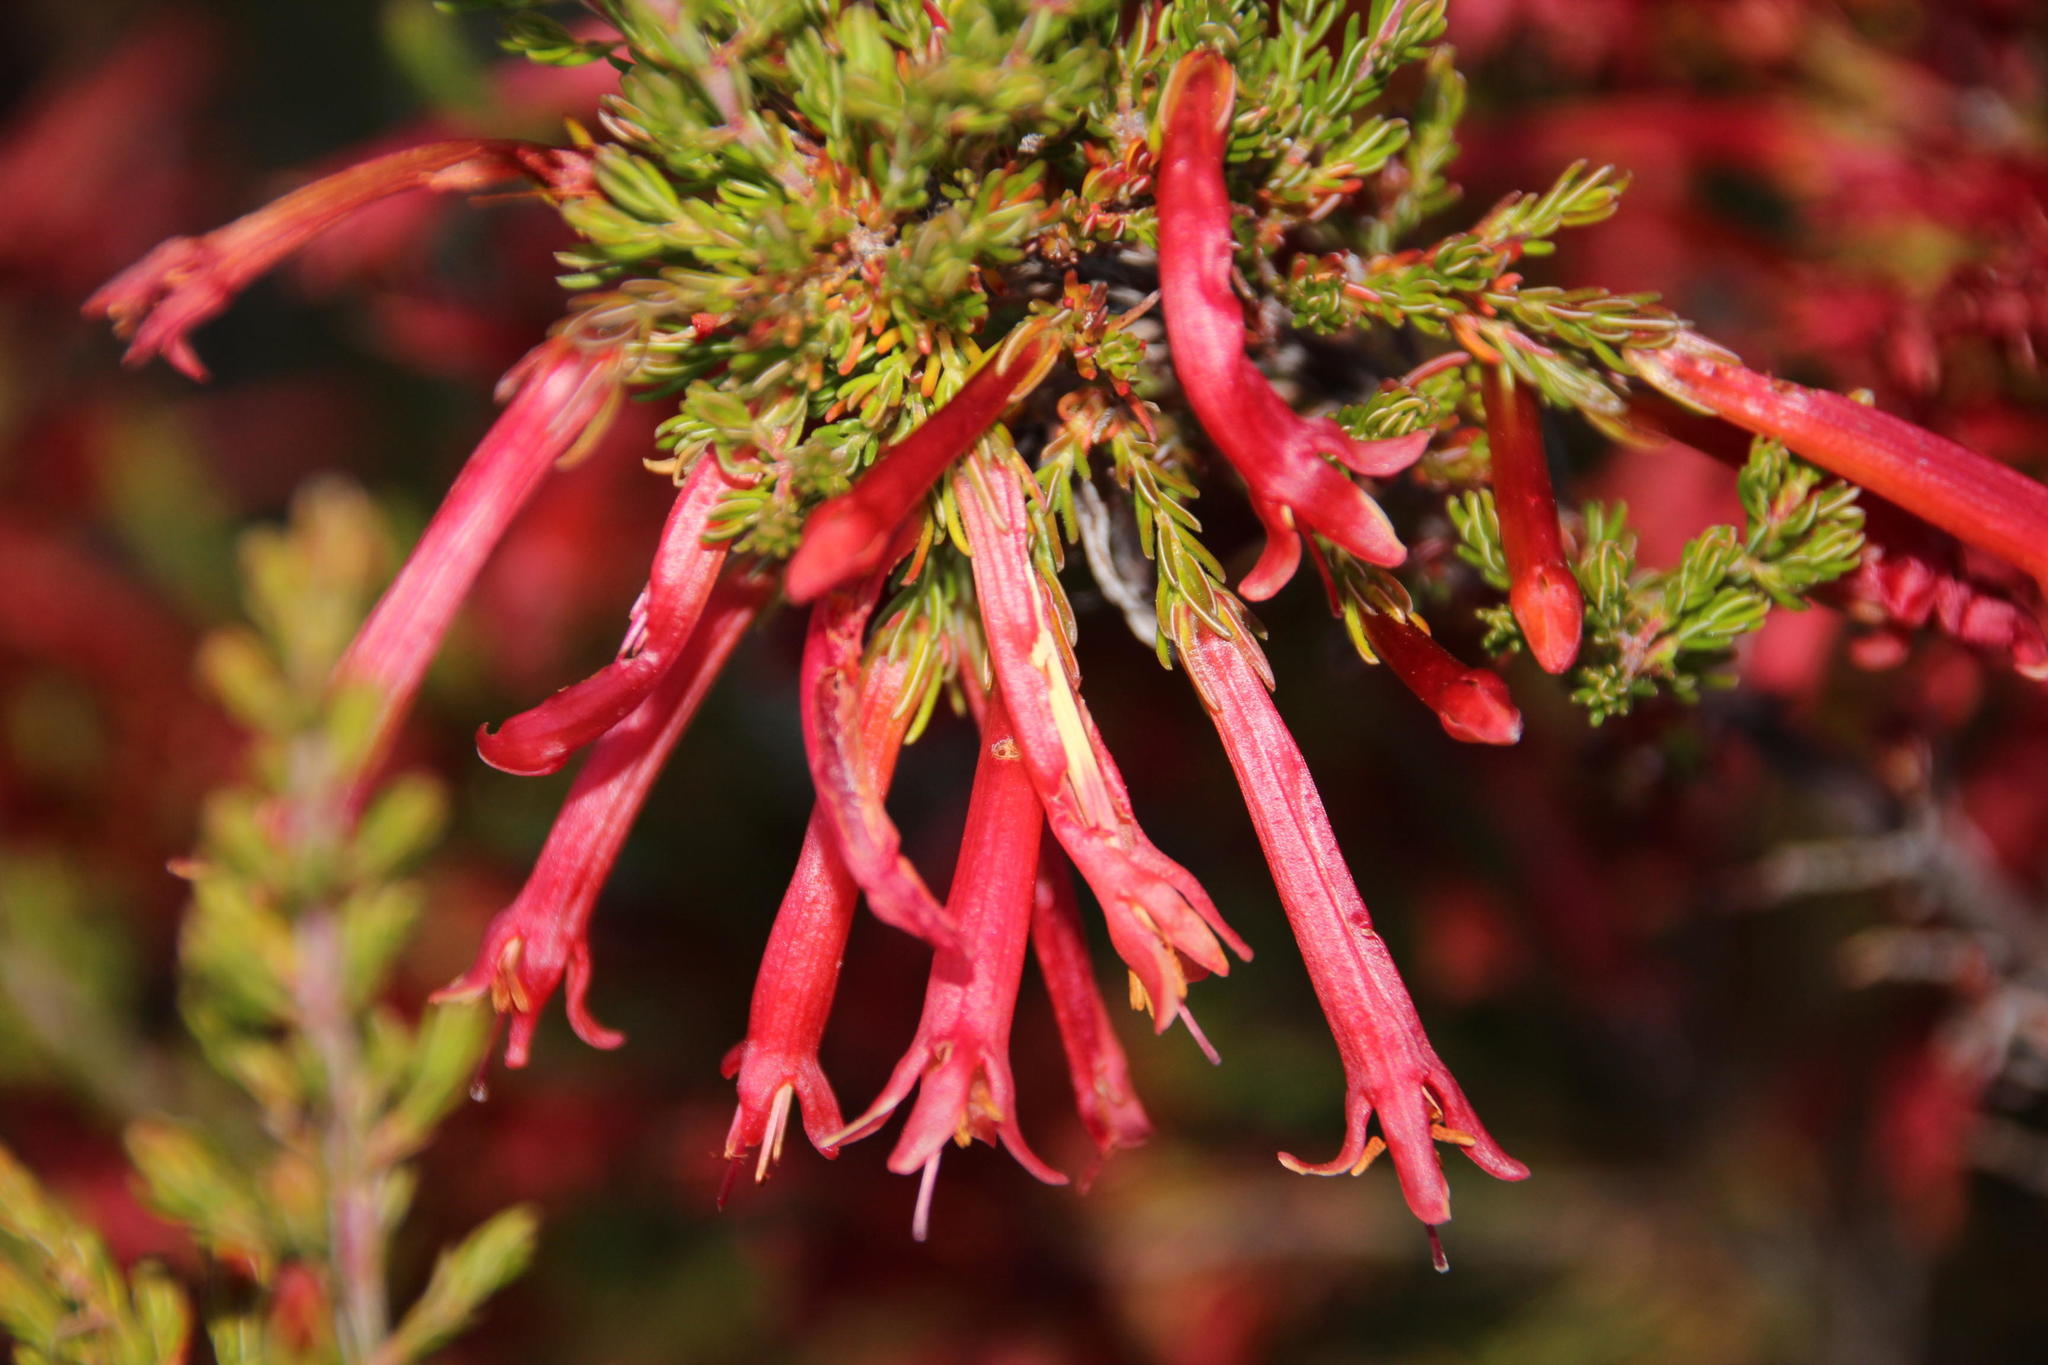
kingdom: Plantae
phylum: Tracheophyta
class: Magnoliopsida
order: Ericales
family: Ericaceae
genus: Erica
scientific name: Erica curviflora
